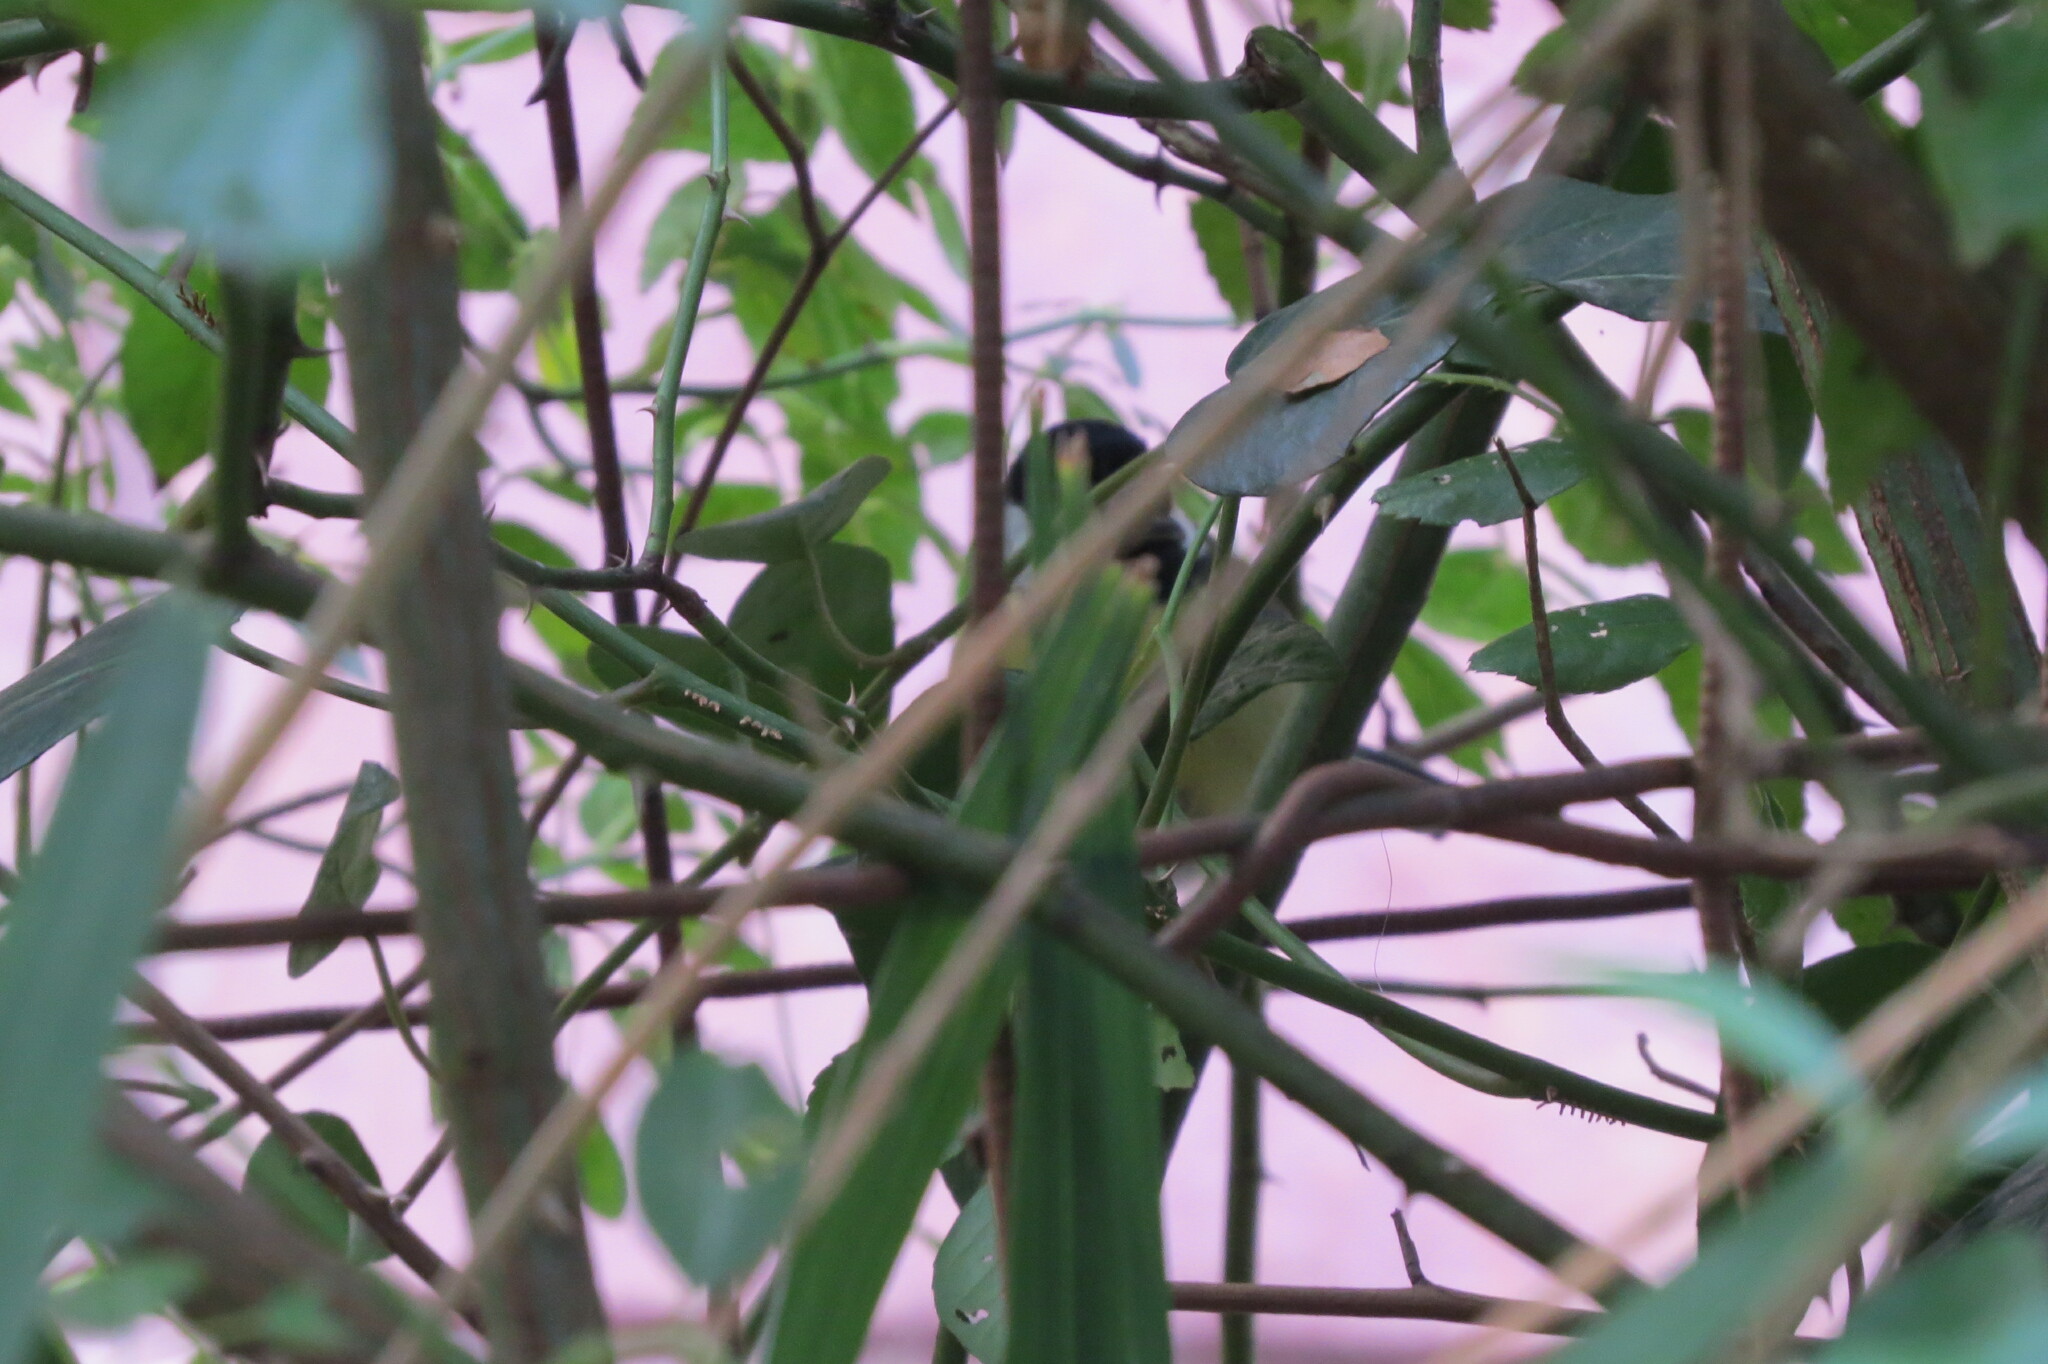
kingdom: Animalia
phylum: Chordata
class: Aves
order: Passeriformes
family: Paridae
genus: Parus
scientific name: Parus major
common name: Great tit
